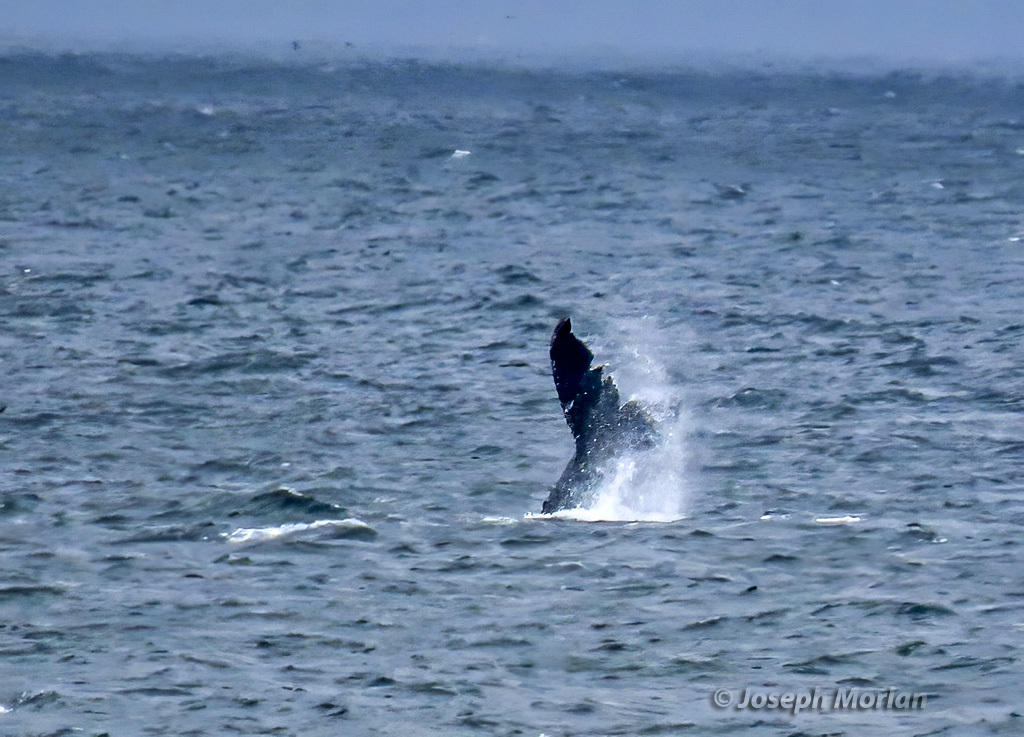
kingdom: Animalia
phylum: Chordata
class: Mammalia
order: Cetacea
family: Balaenopteridae
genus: Megaptera
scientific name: Megaptera novaeangliae
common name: Humpback whale
